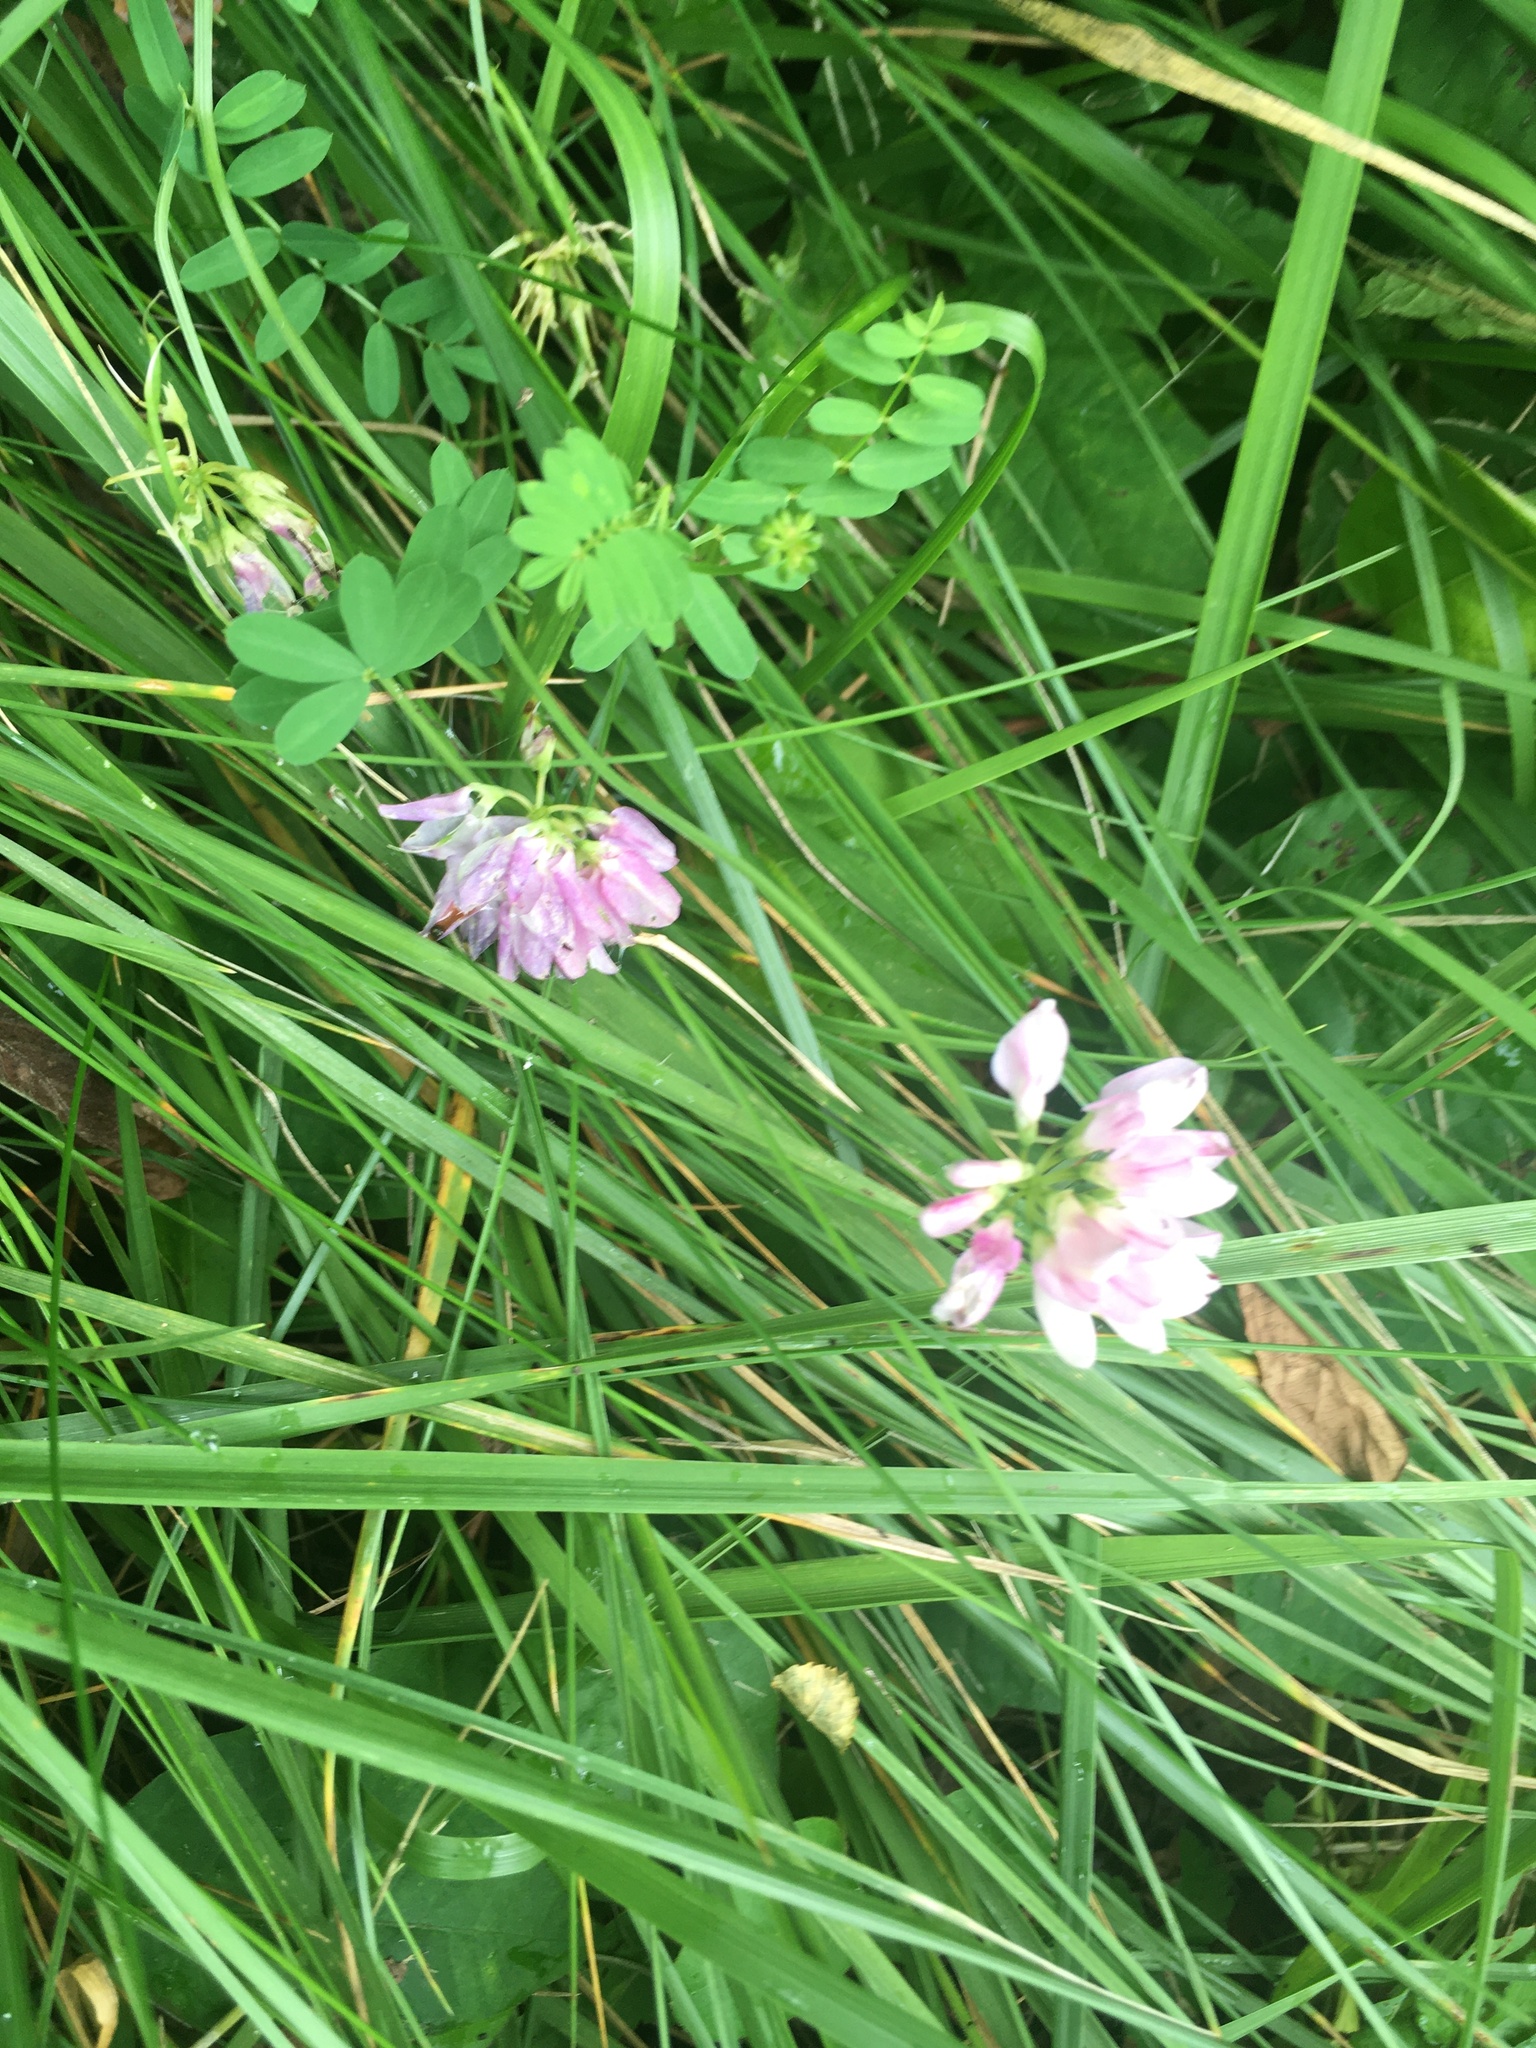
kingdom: Plantae
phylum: Tracheophyta
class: Magnoliopsida
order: Fabales
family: Fabaceae
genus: Coronilla
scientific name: Coronilla varia
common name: Crownvetch
